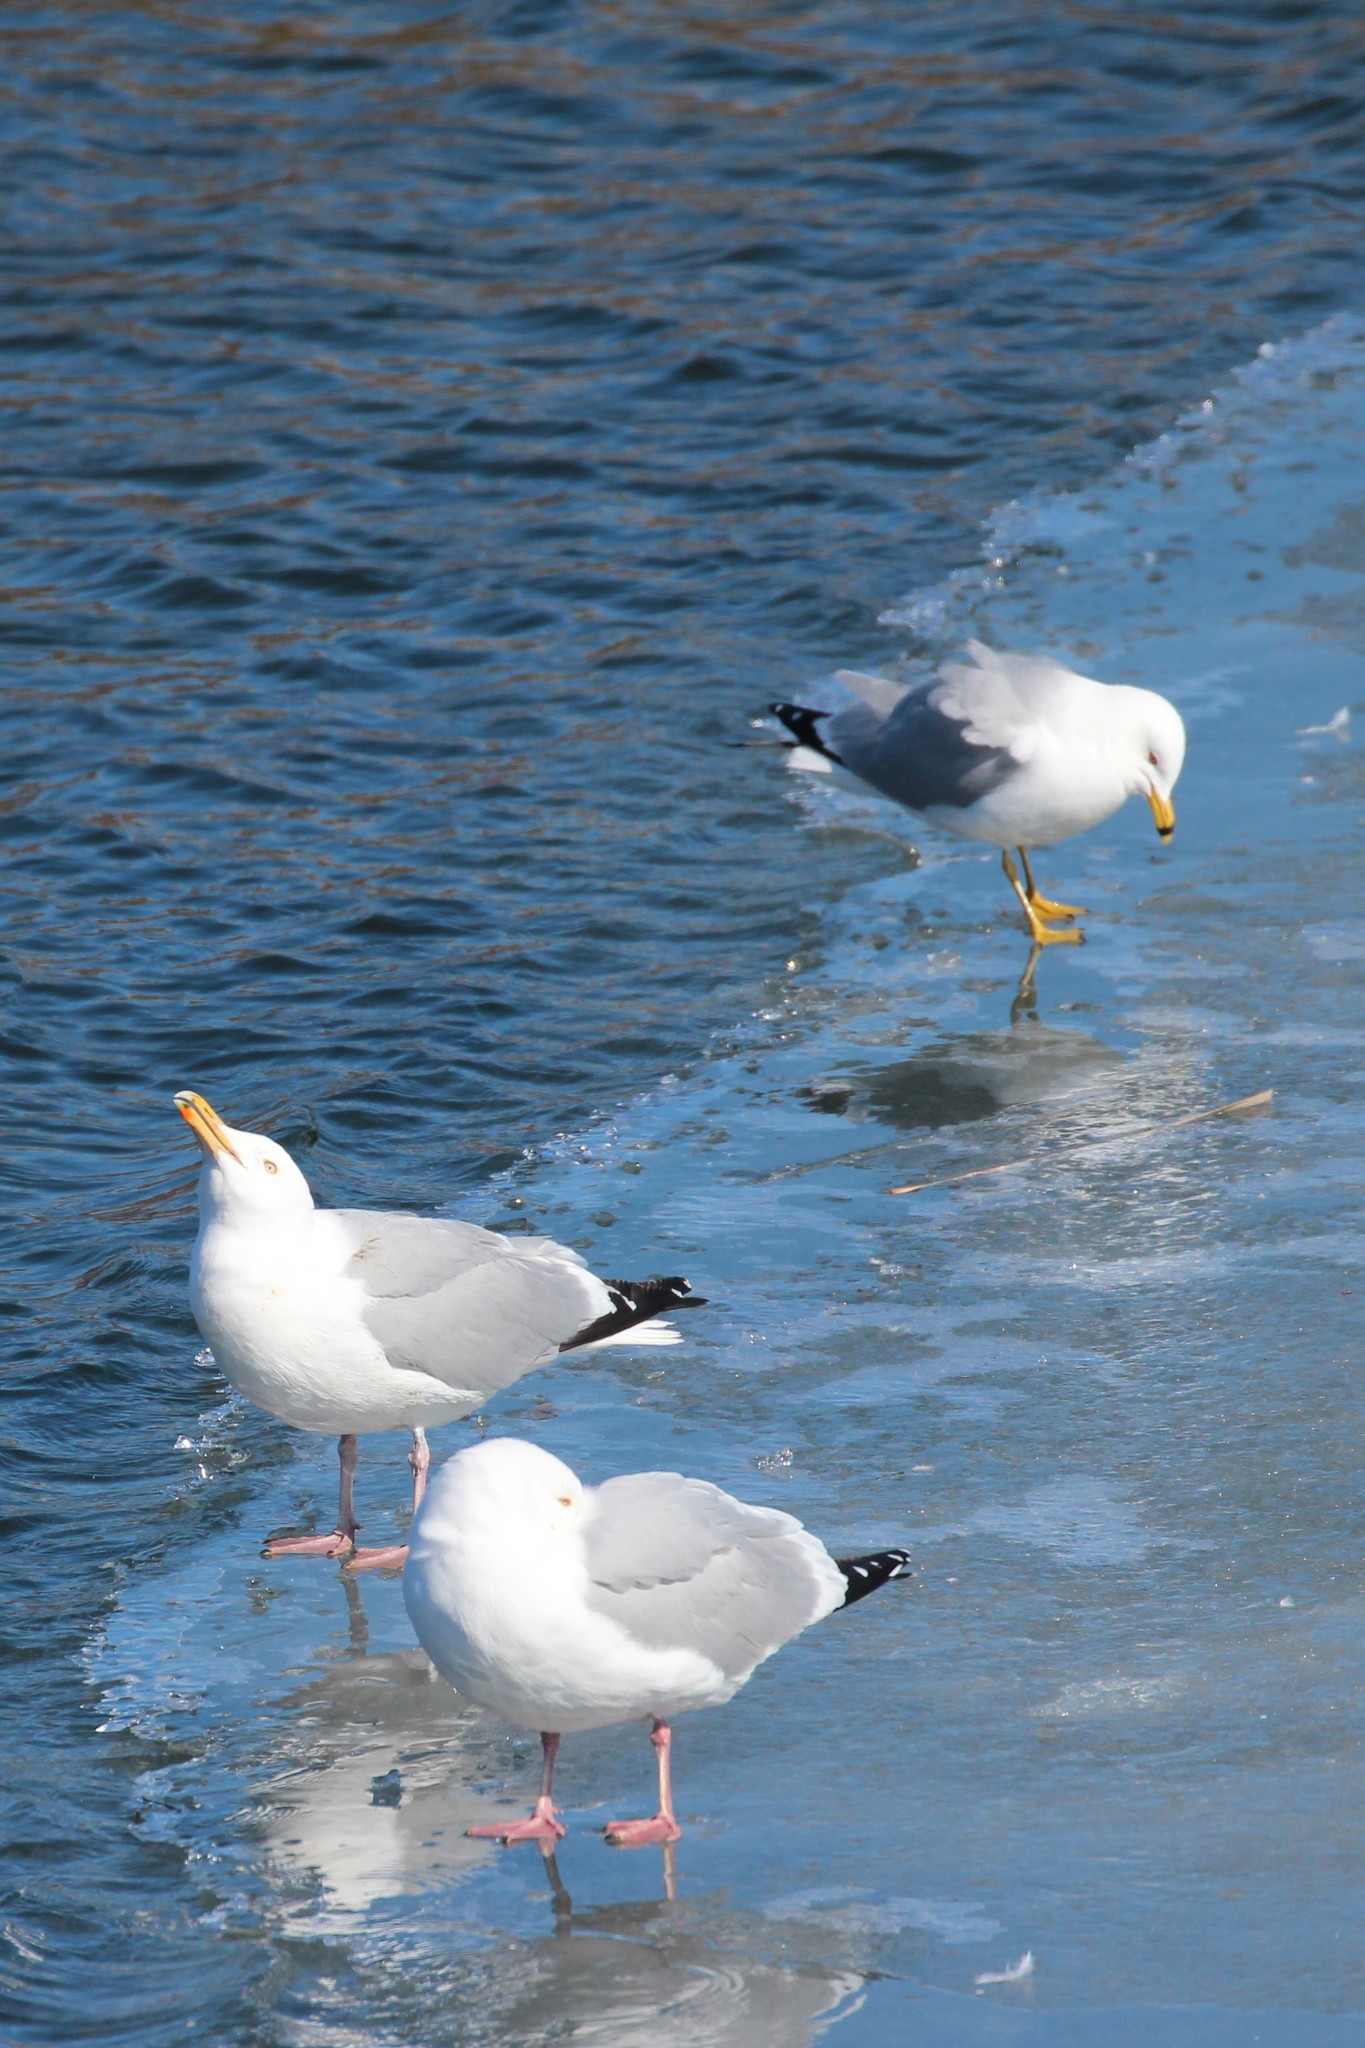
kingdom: Animalia
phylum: Chordata
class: Aves
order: Charadriiformes
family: Laridae
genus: Larus
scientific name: Larus delawarensis
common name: Ring-billed gull
